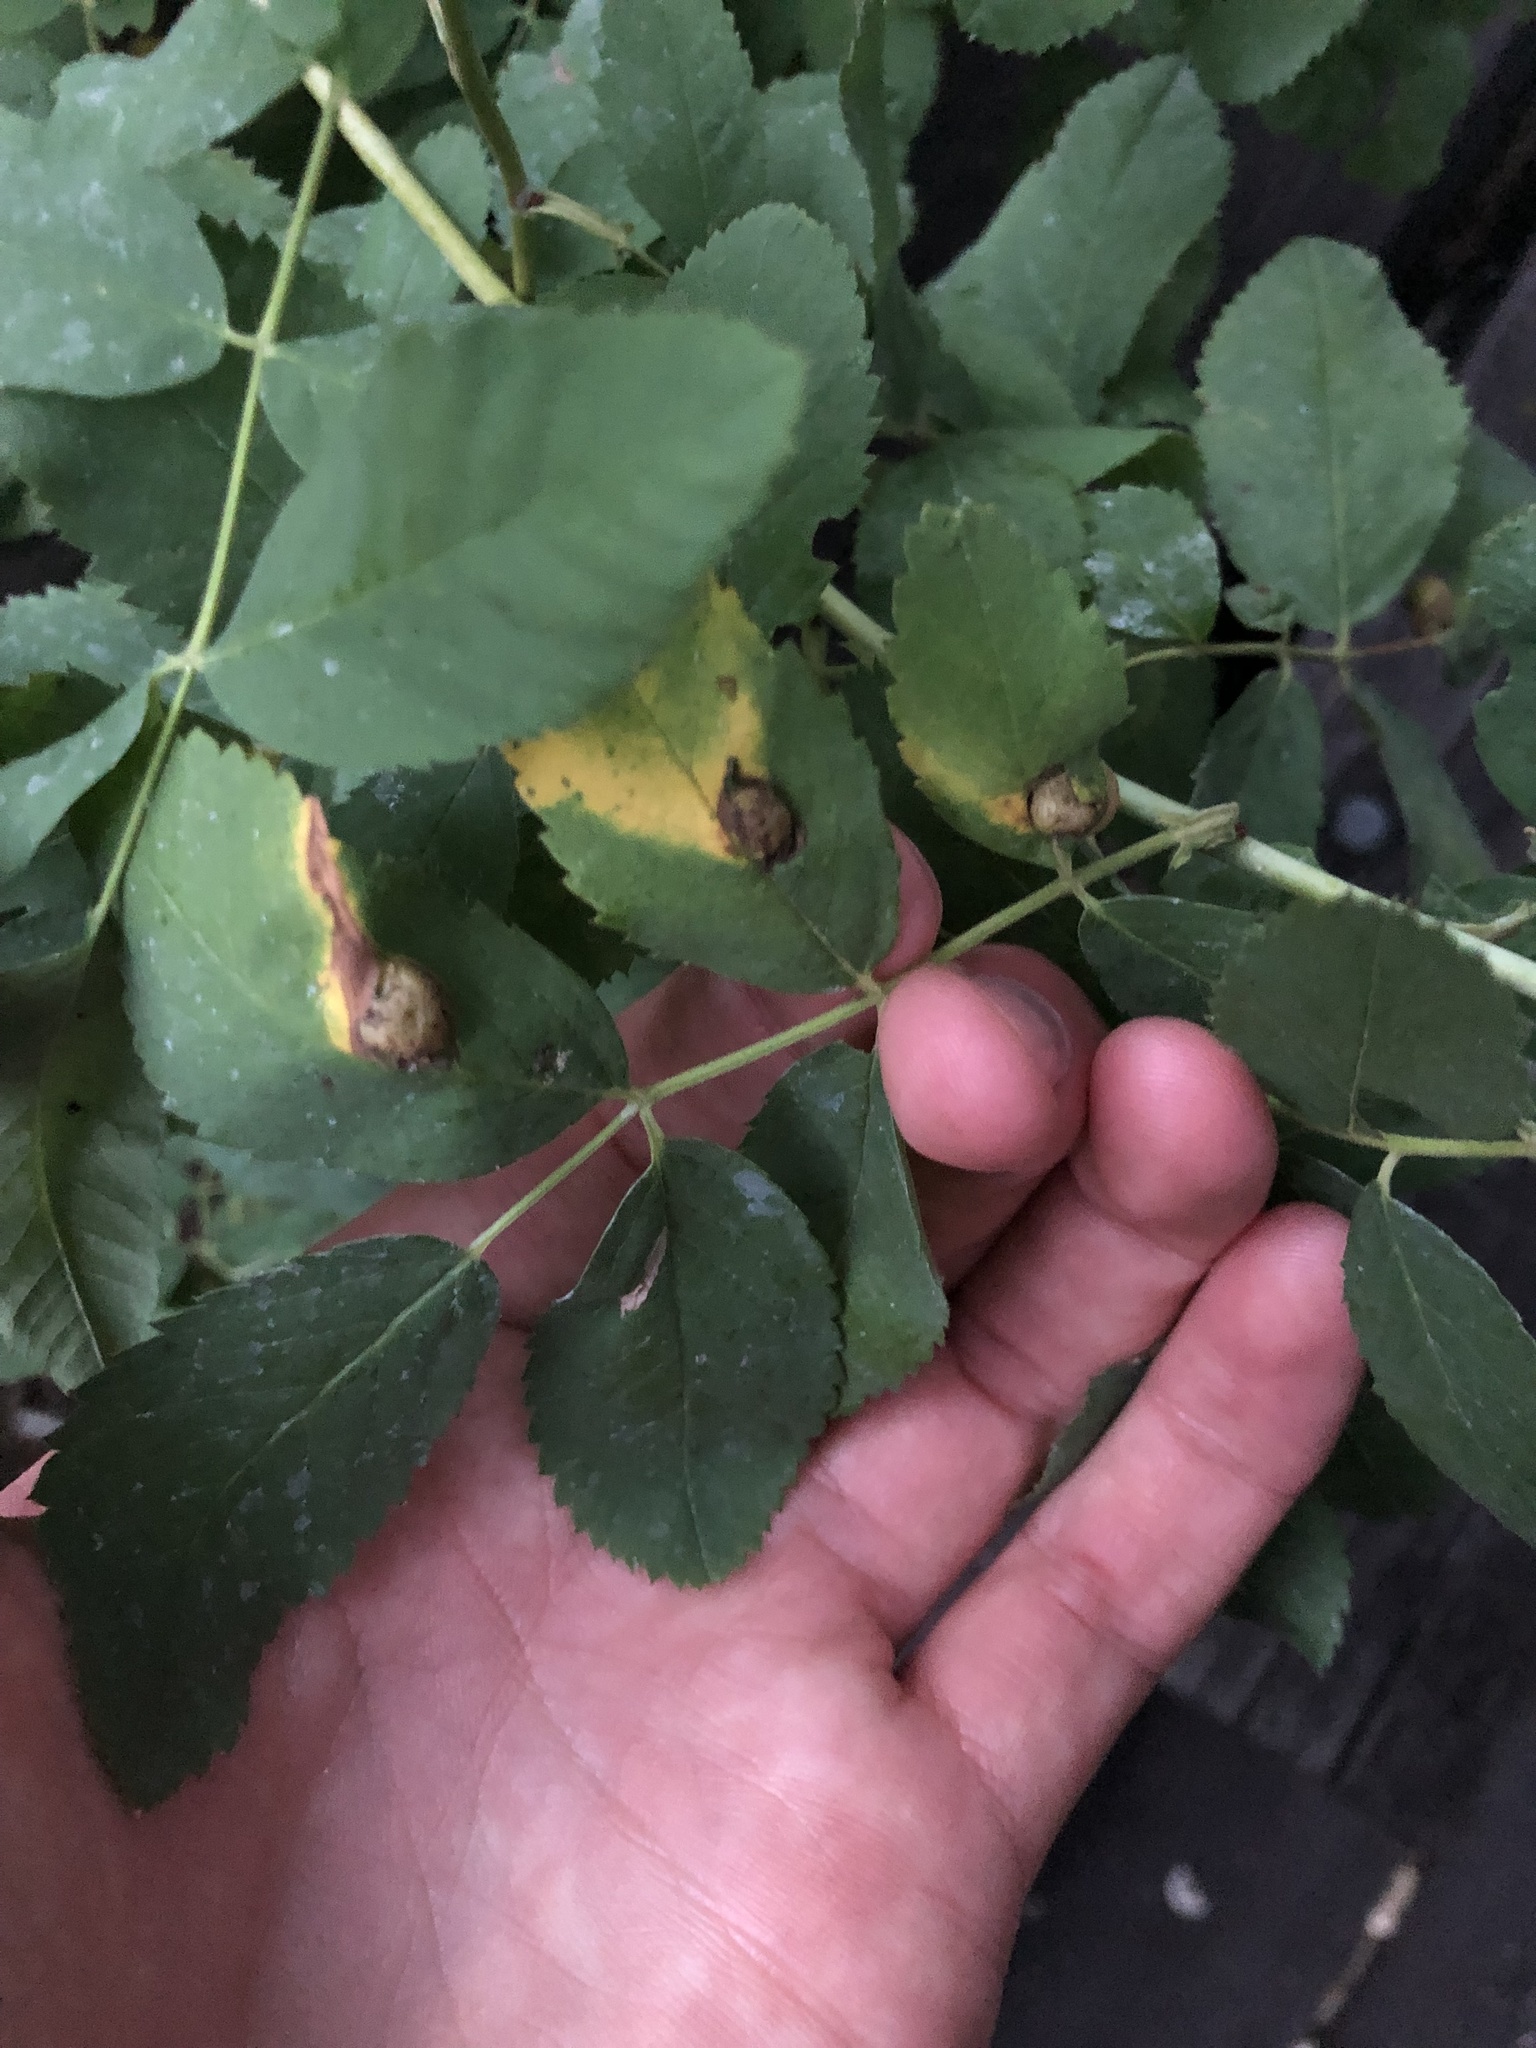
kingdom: Animalia
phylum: Arthropoda
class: Insecta
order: Hymenoptera
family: Cynipidae
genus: Diplolepis
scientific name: Diplolepis variabilis
